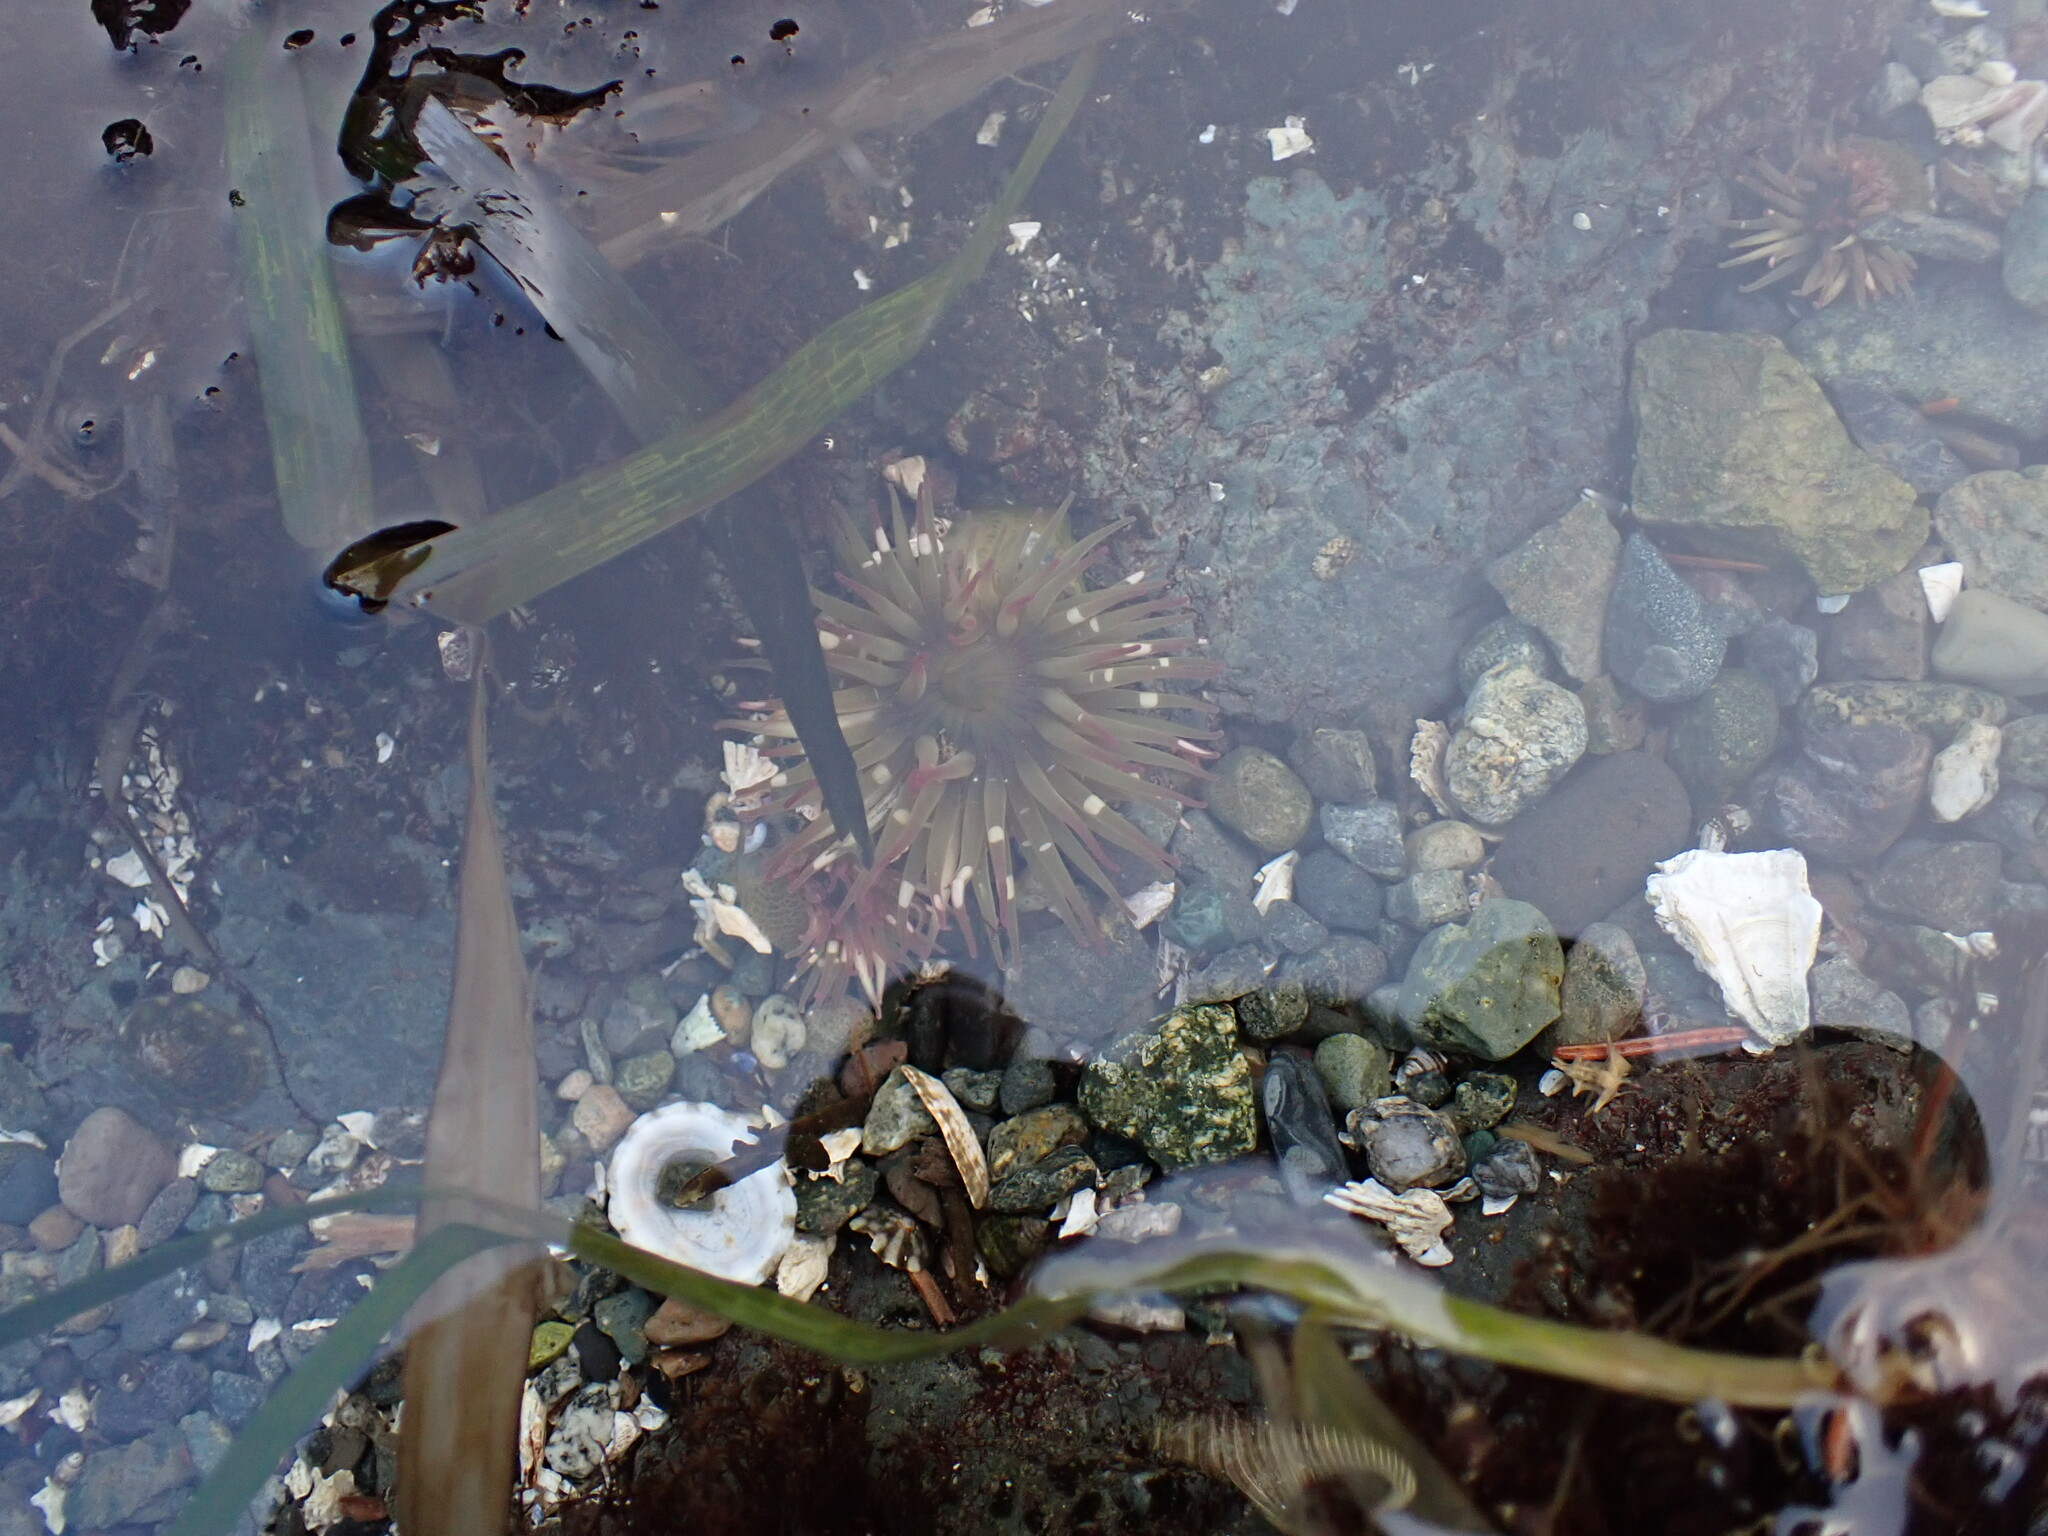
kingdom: Animalia
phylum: Cnidaria
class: Anthozoa
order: Actiniaria
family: Actiniidae
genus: Anthopleura
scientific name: Anthopleura elegantissima
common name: Clonal anemone
